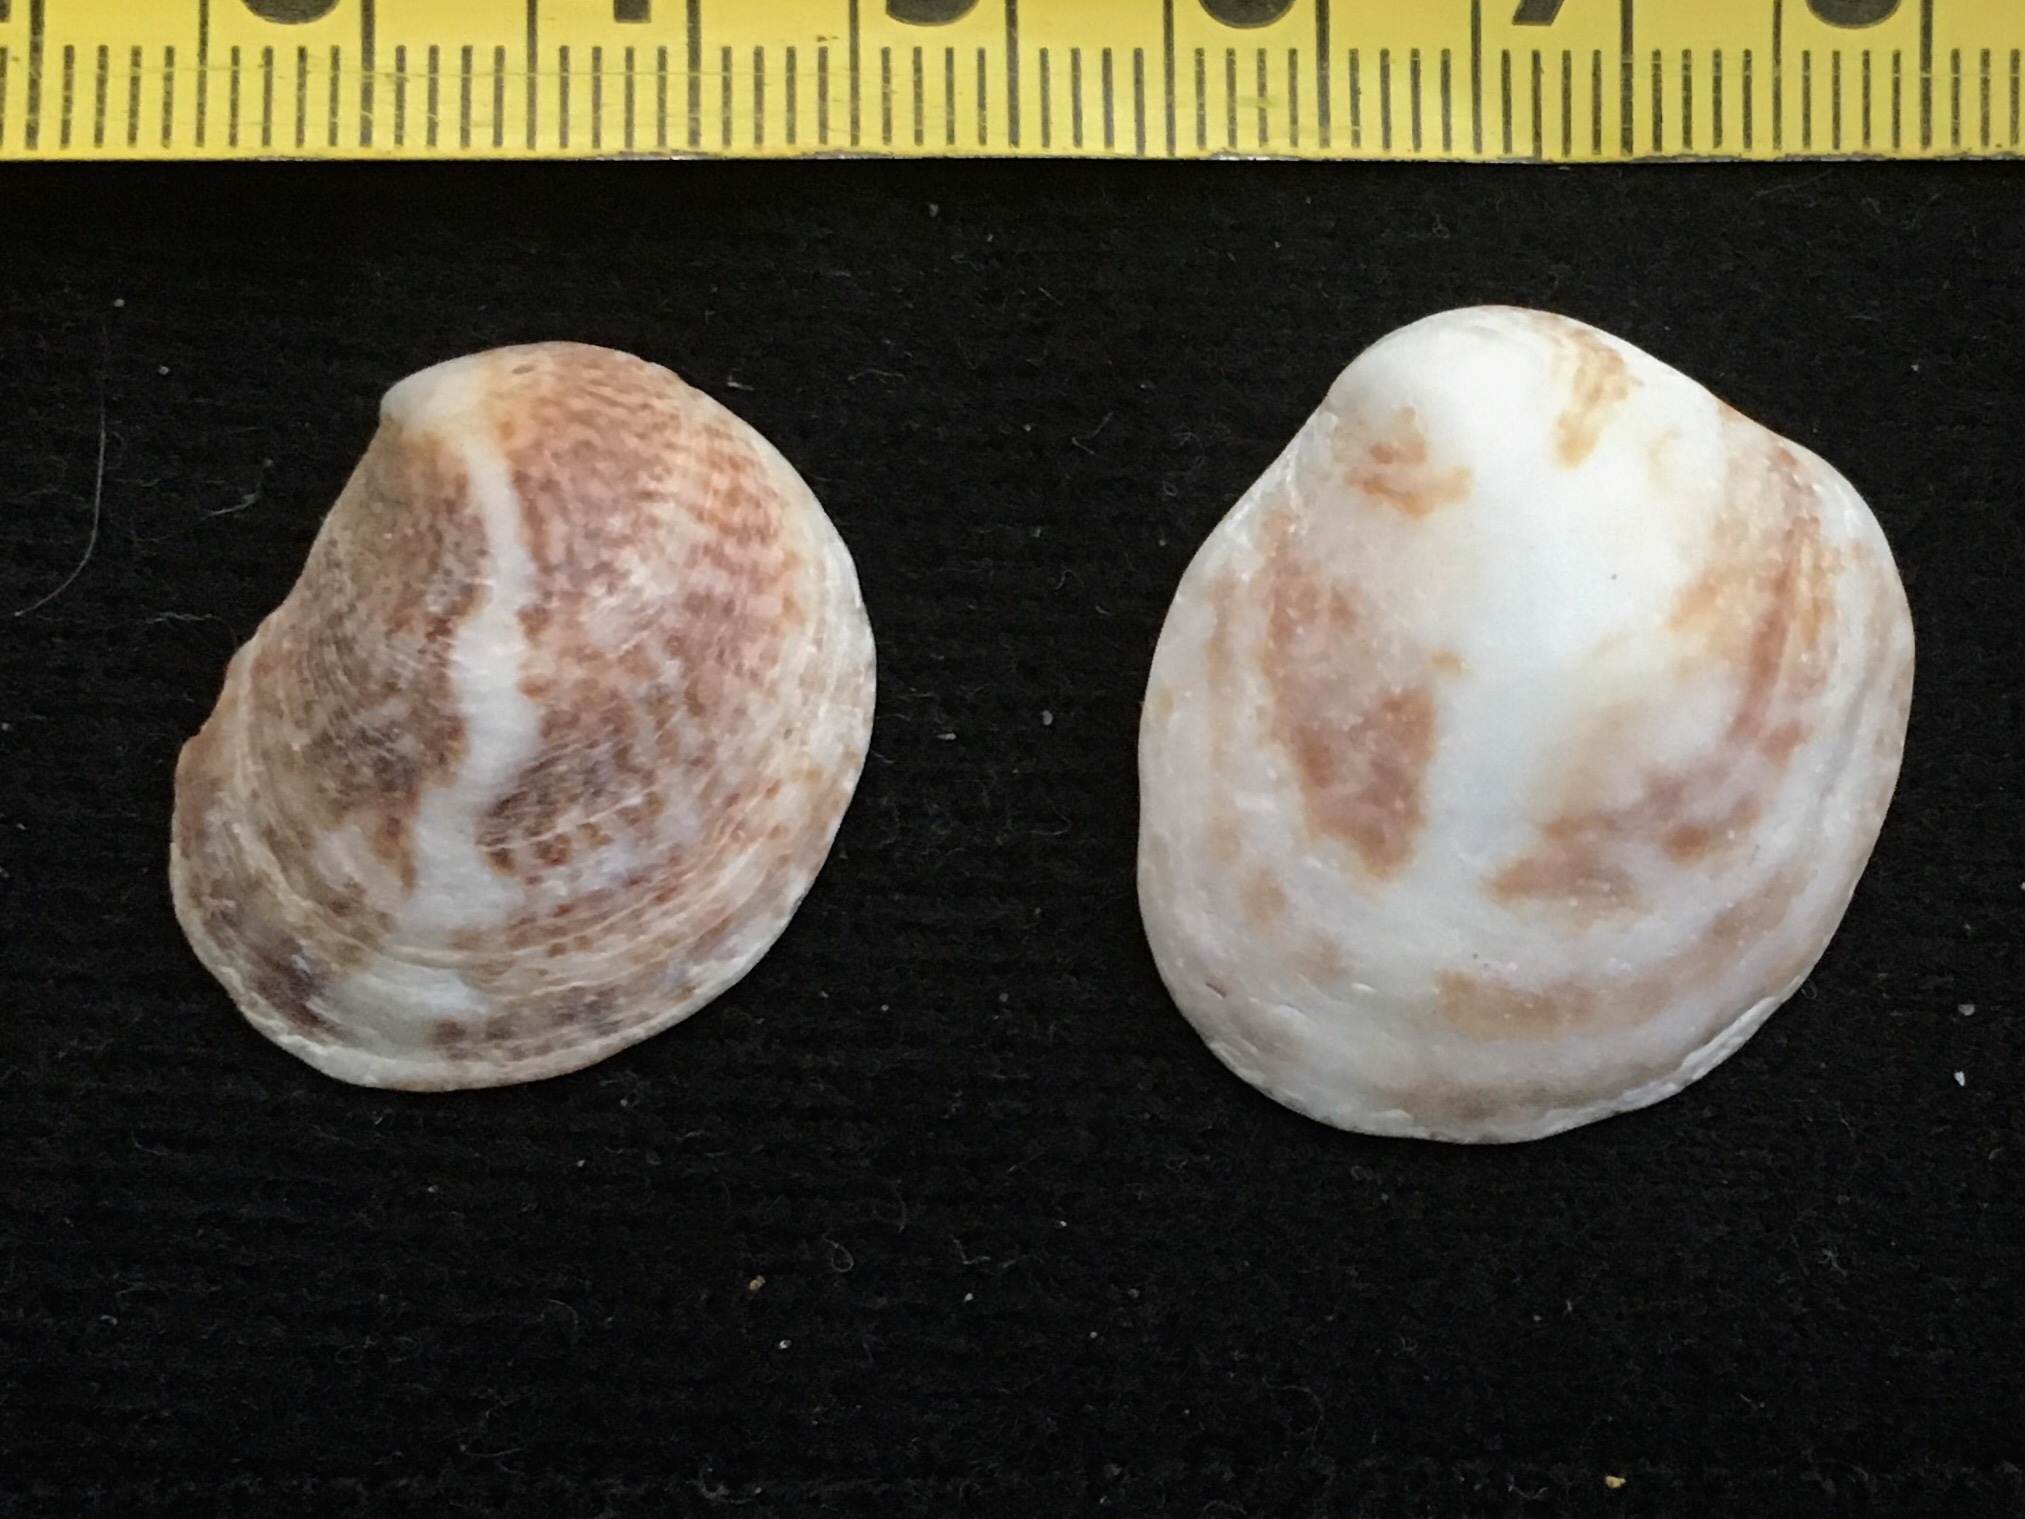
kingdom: Animalia
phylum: Mollusca
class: Gastropoda
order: Littorinimorpha
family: Calyptraeidae
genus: Crepipatella
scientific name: Crepipatella dilatata
